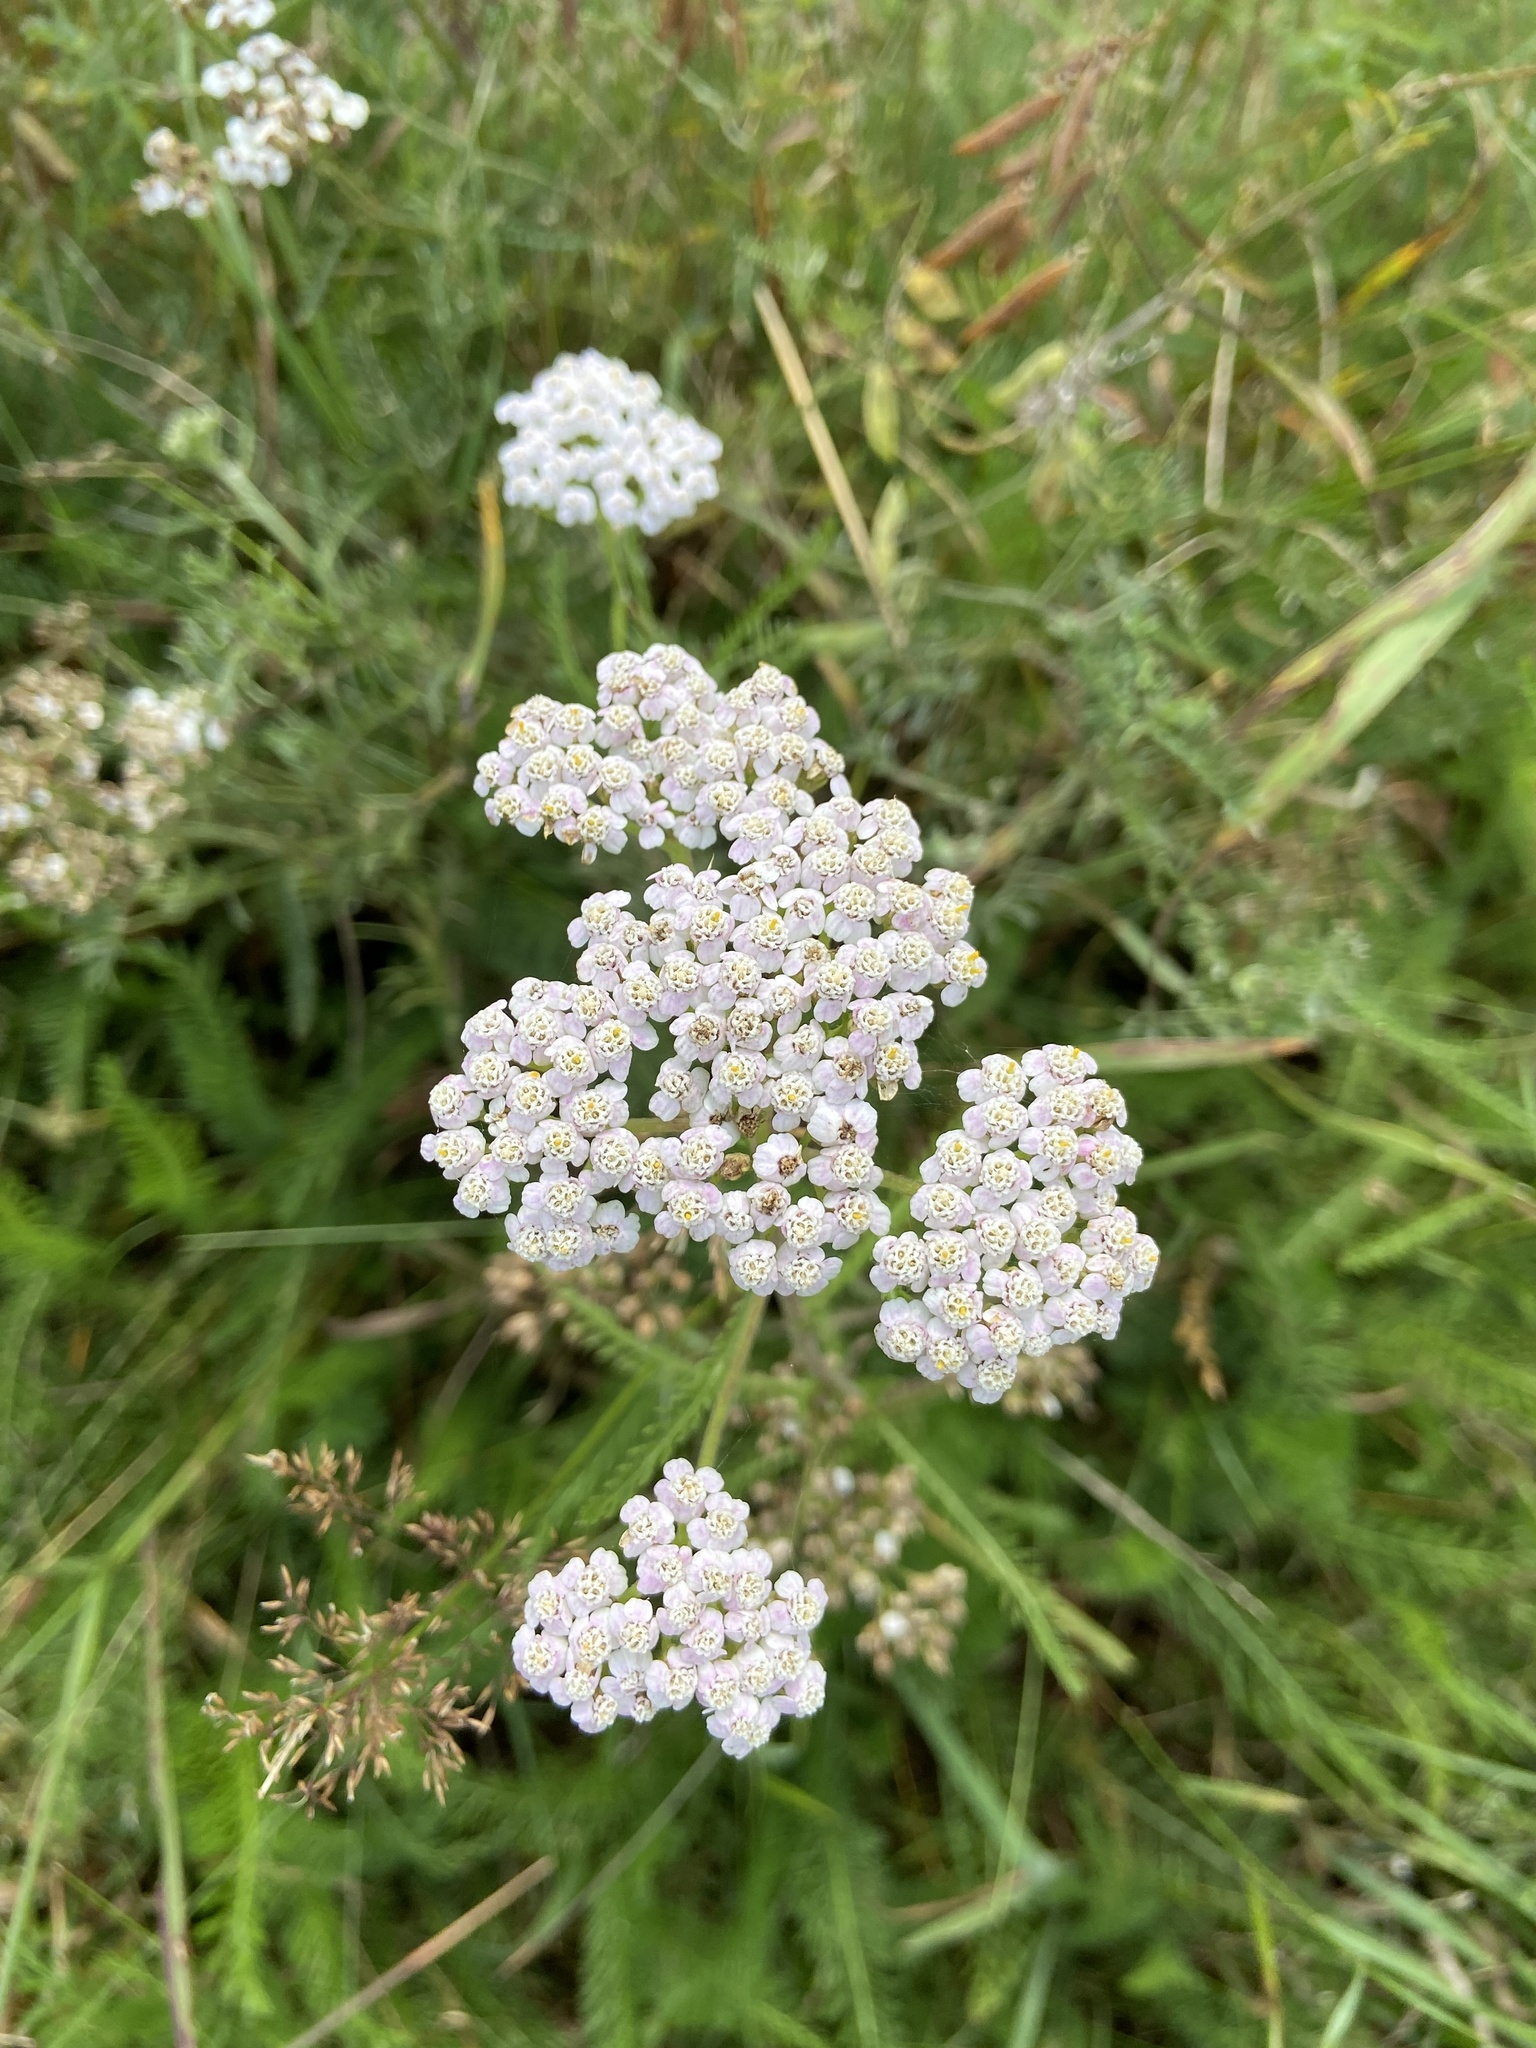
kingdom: Plantae
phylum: Tracheophyta
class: Magnoliopsida
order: Asterales
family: Asteraceae
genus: Achillea
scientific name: Achillea millefolium
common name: Yarrow
